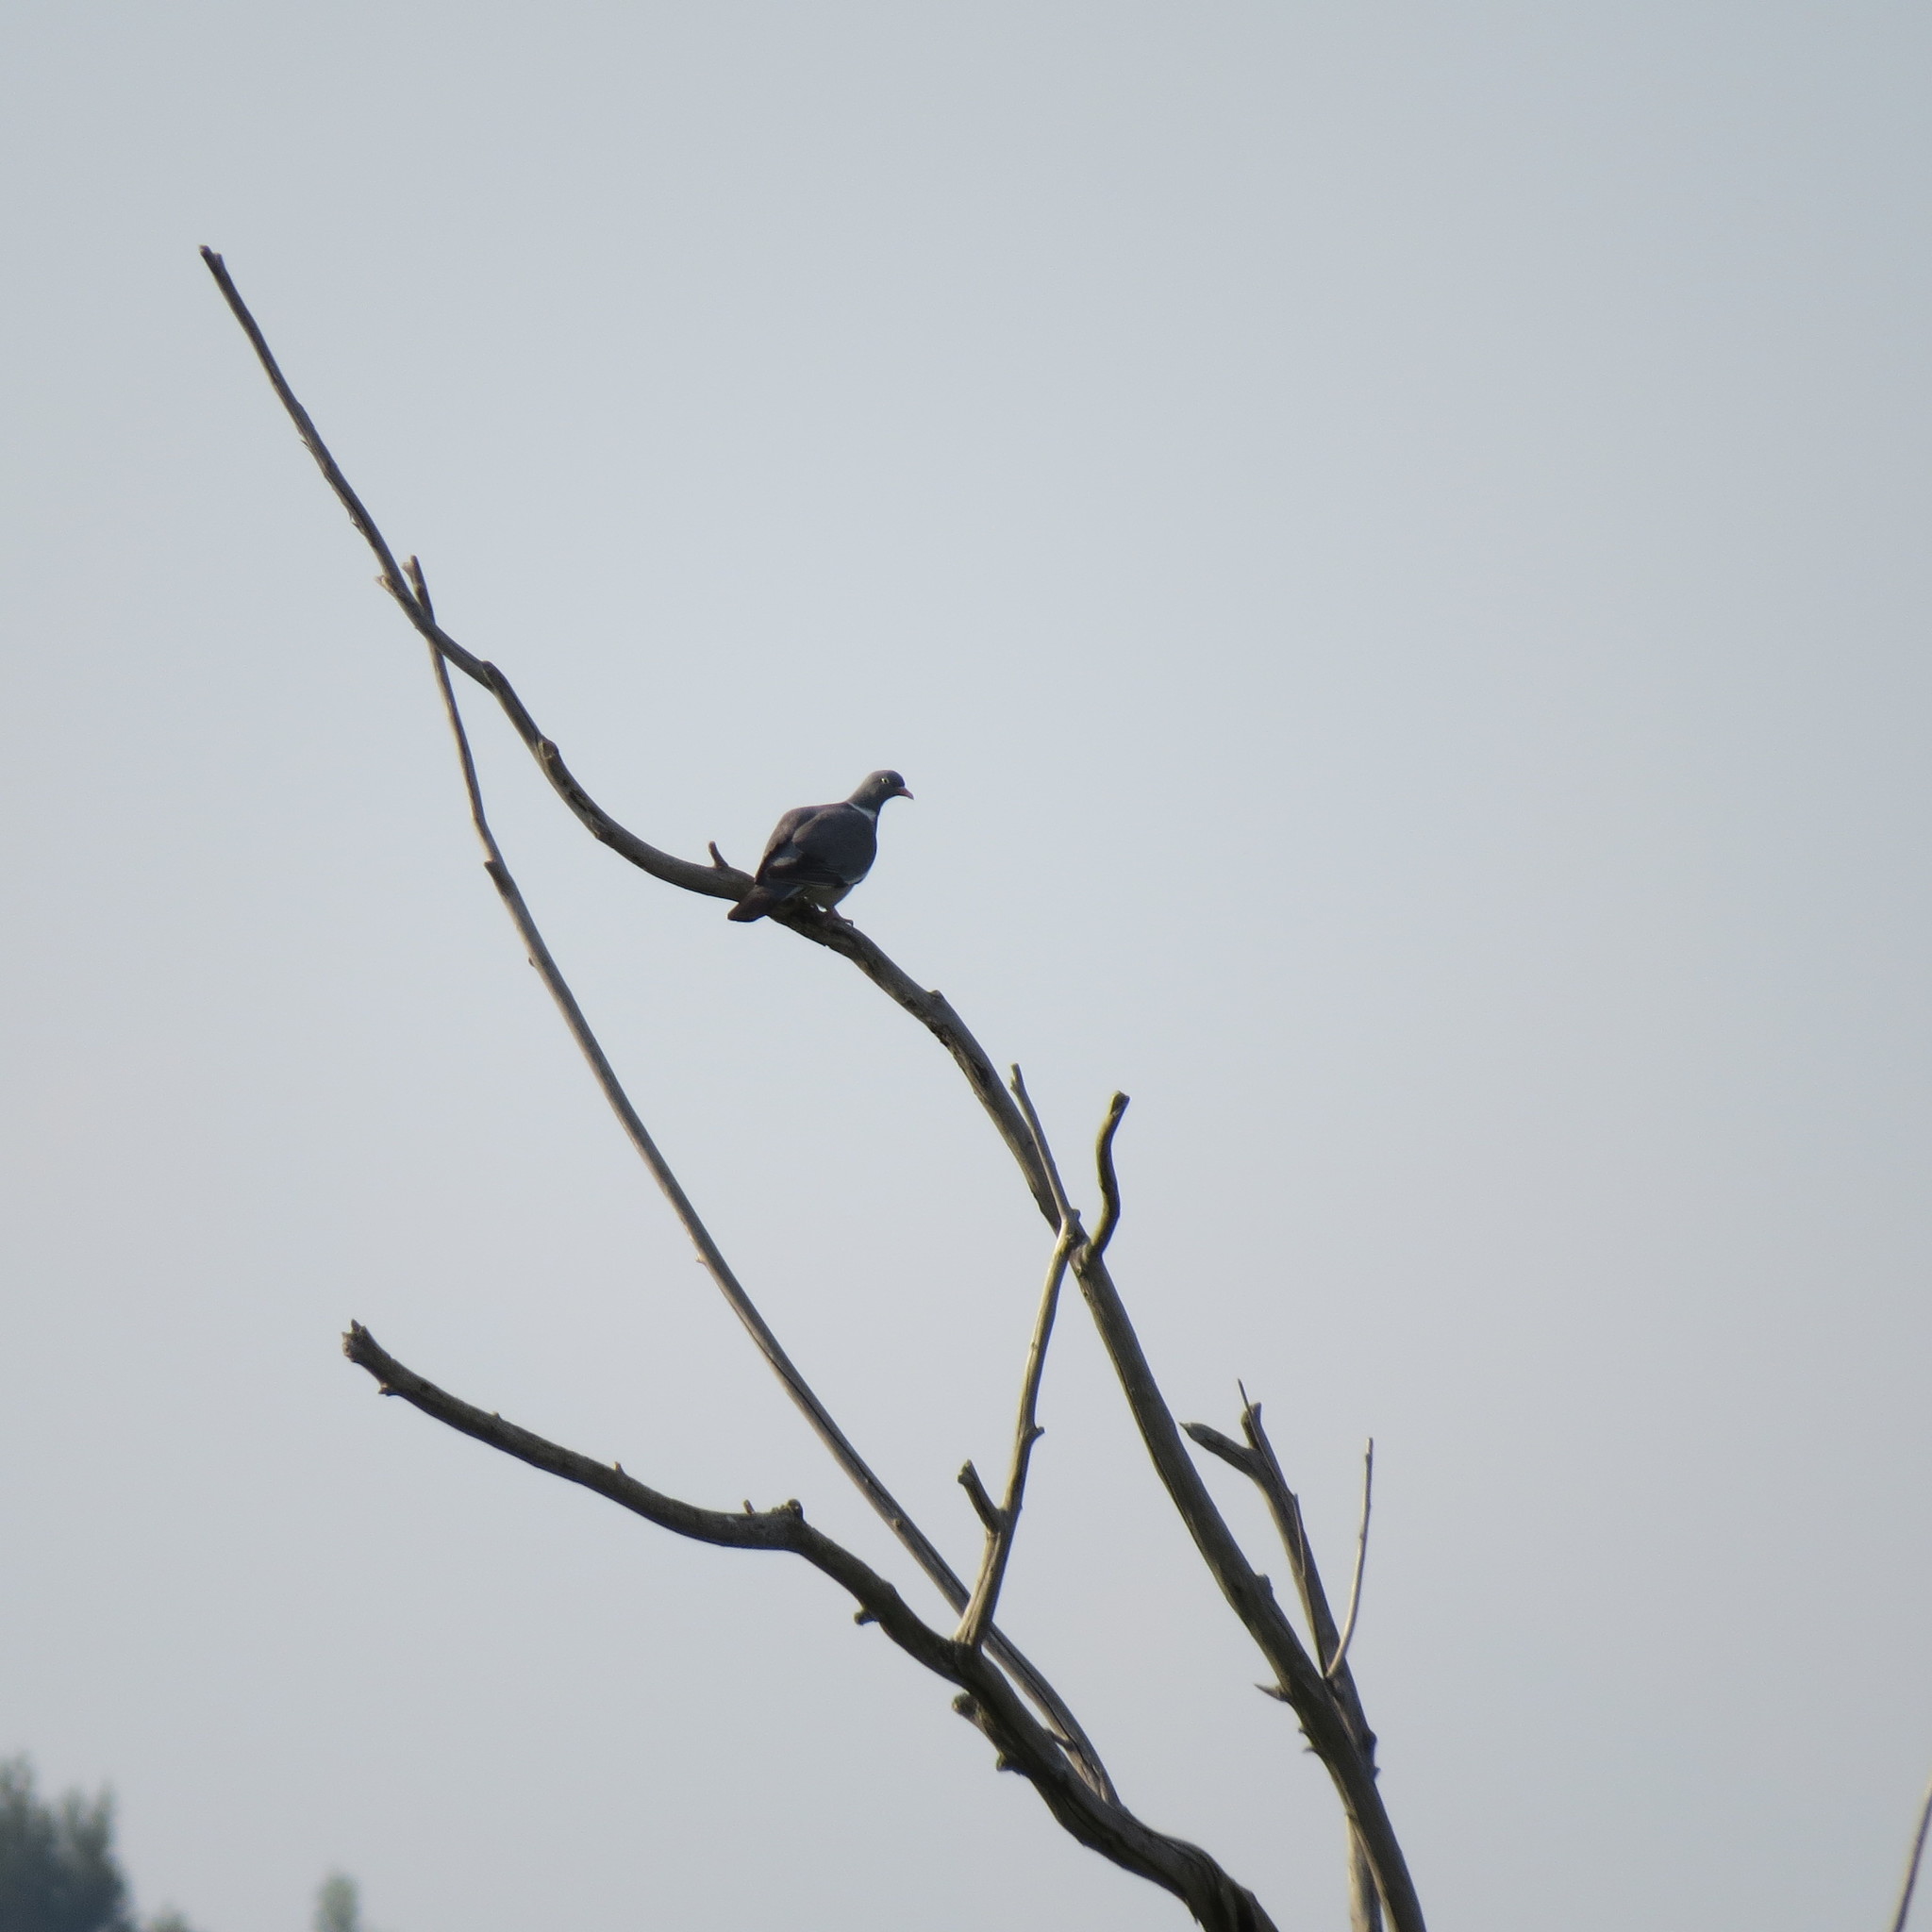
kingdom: Animalia
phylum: Chordata
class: Aves
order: Columbiformes
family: Columbidae
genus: Columba
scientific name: Columba palumbus
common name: Common wood pigeon
